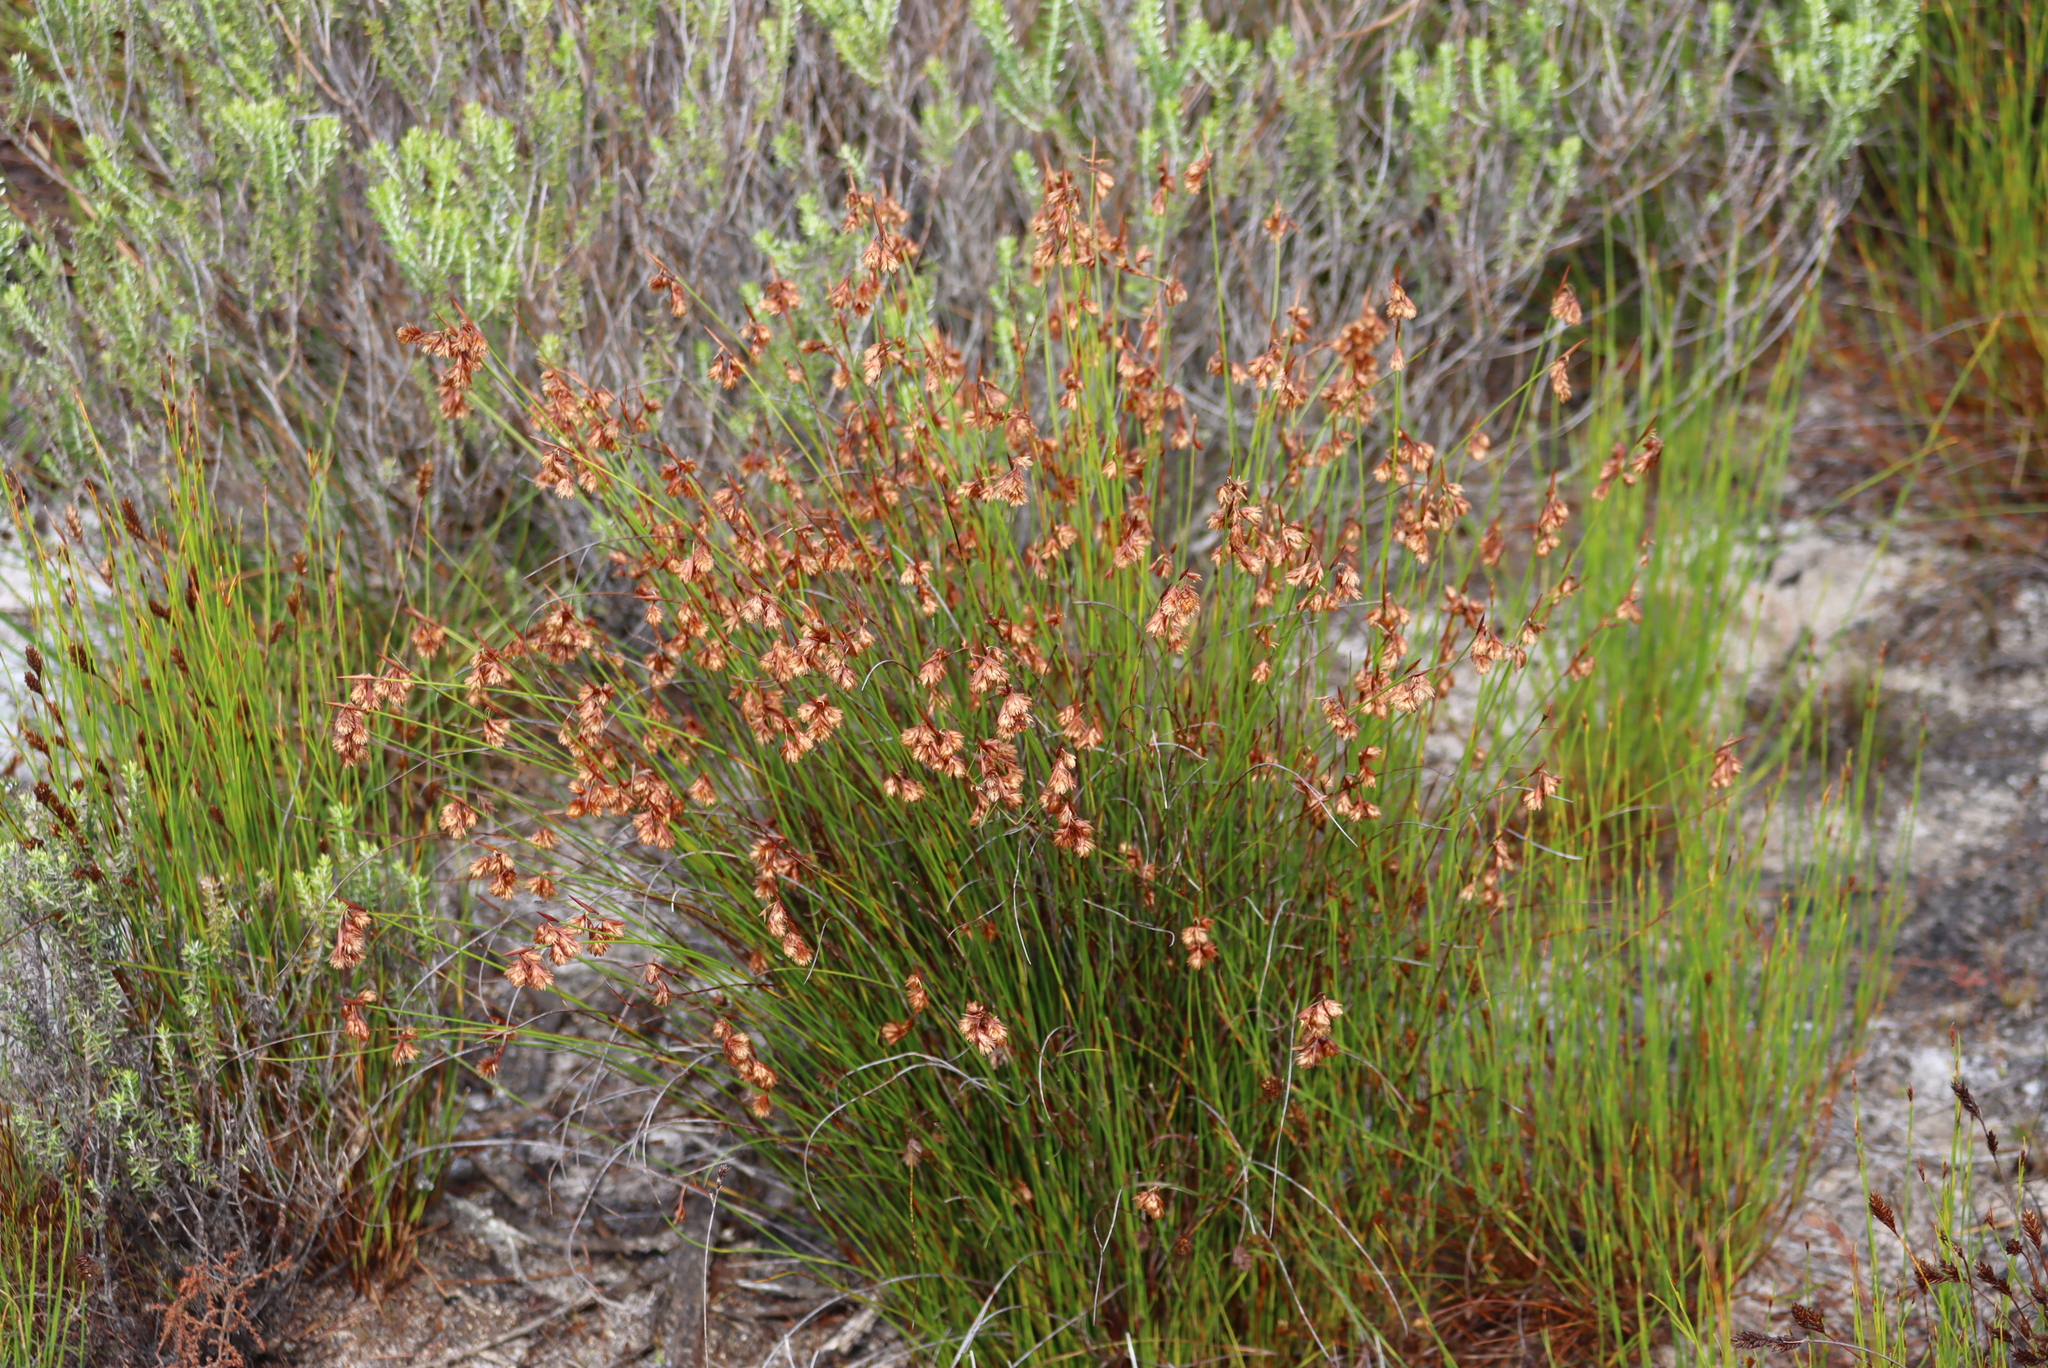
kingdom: Plantae
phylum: Tracheophyta
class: Liliopsida
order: Poales
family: Restionaceae
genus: Staberoha
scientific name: Staberoha banksii
